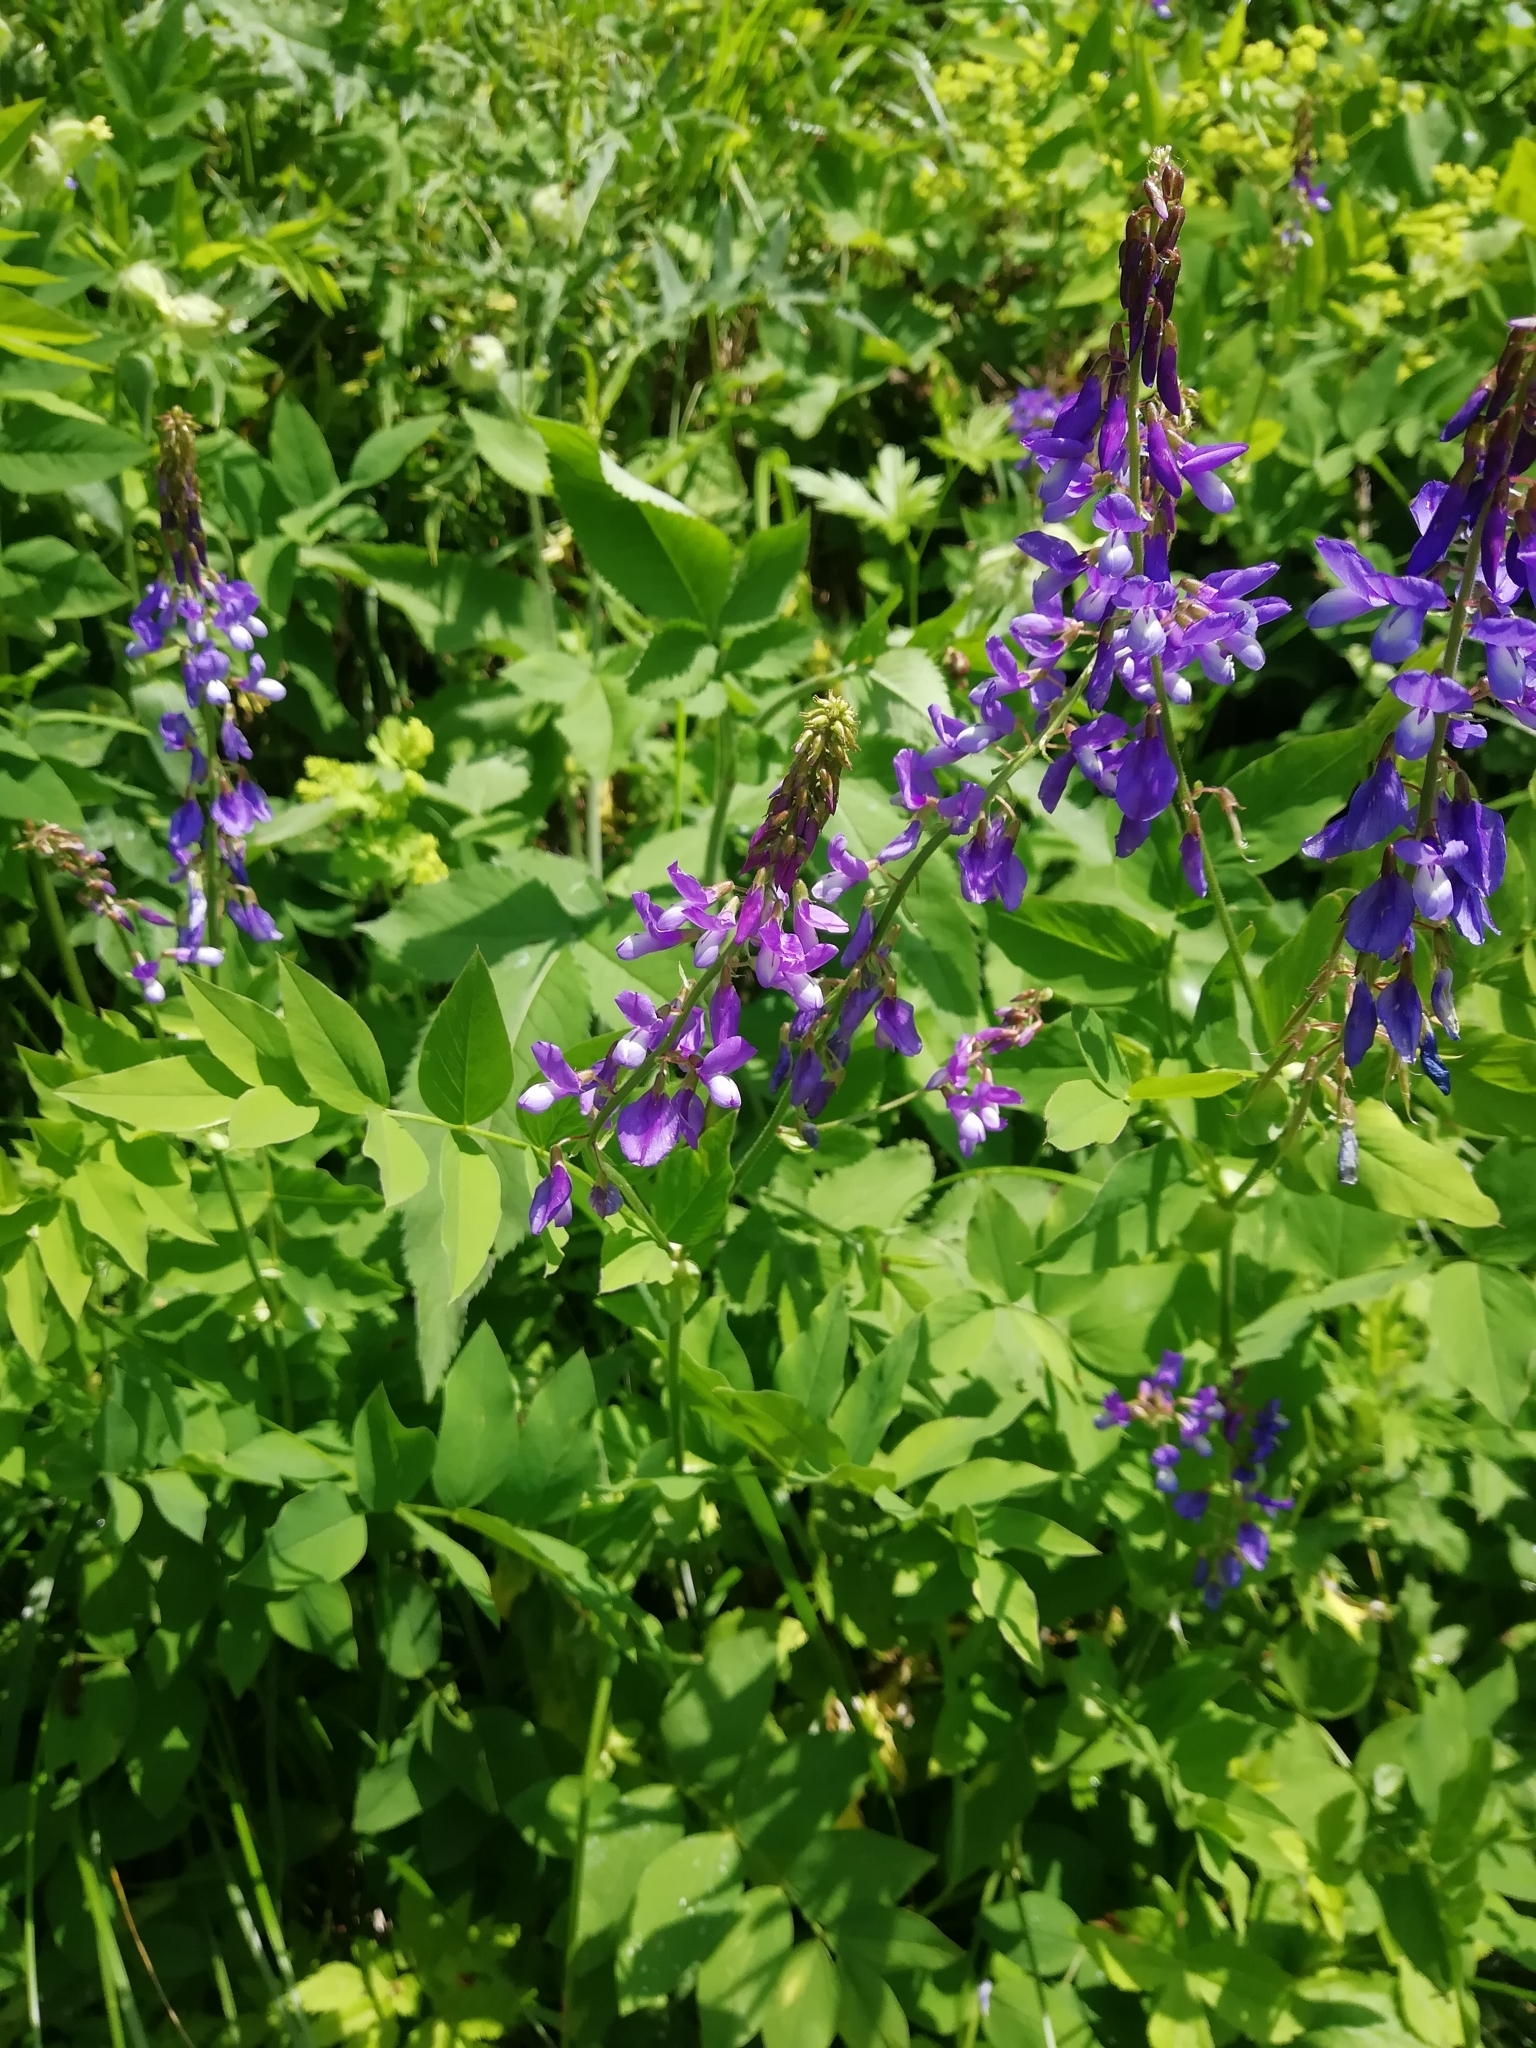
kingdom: Plantae
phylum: Tracheophyta
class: Magnoliopsida
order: Fabales
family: Fabaceae
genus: Galega
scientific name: Galega orientalis
